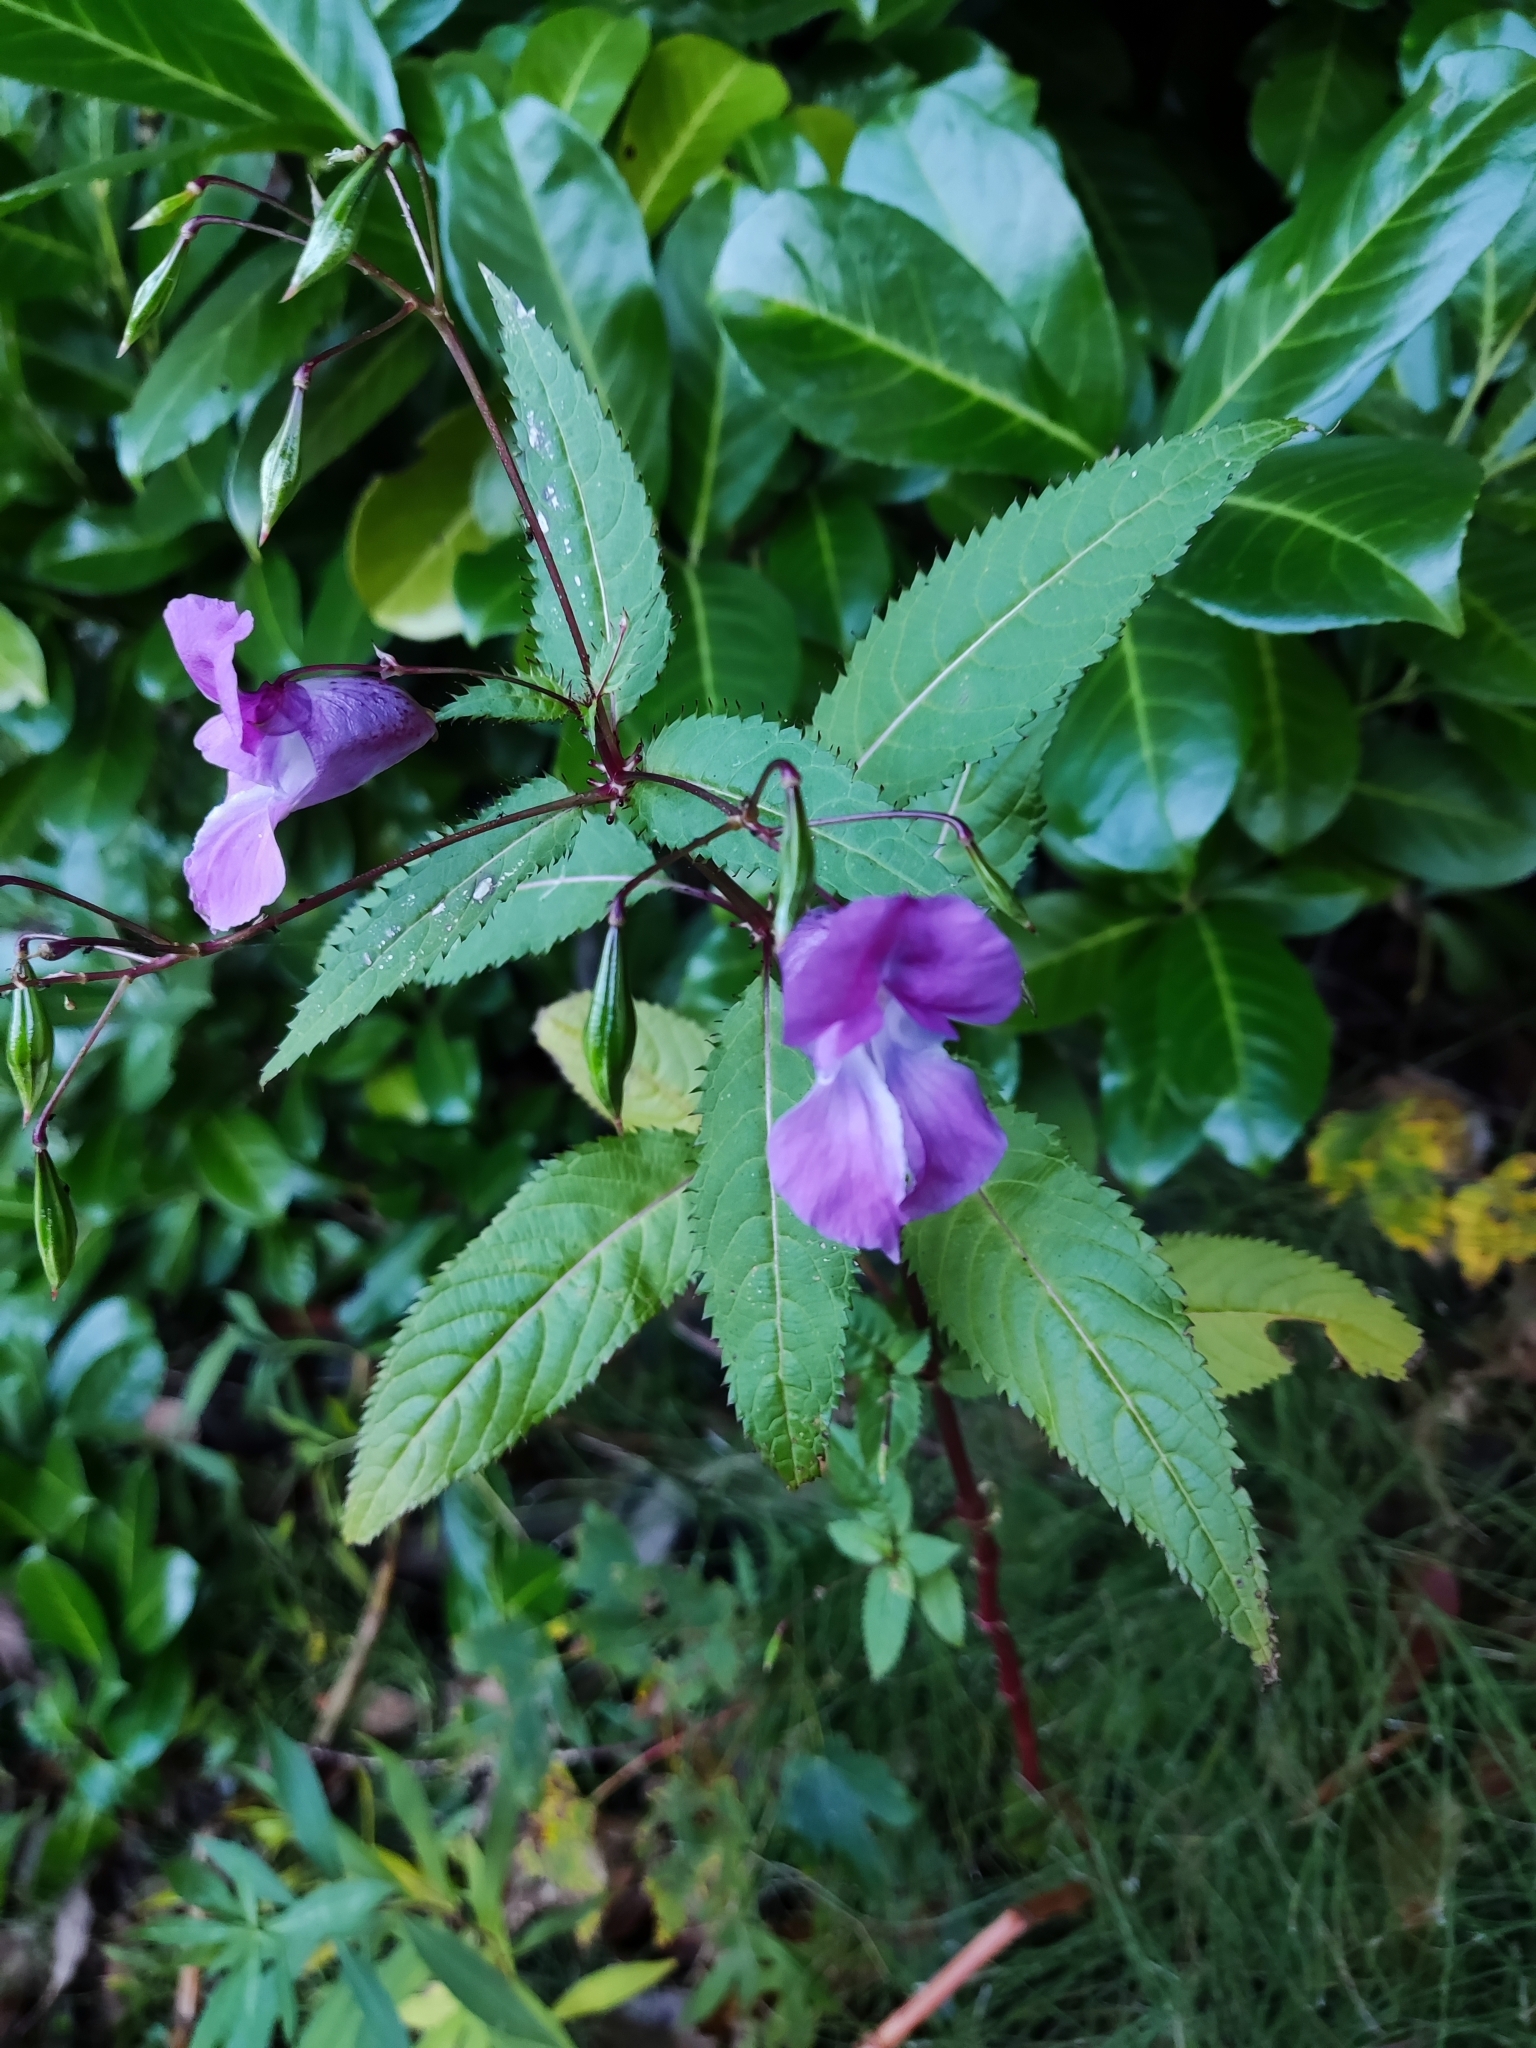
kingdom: Plantae
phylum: Tracheophyta
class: Magnoliopsida
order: Ericales
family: Balsaminaceae
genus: Impatiens
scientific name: Impatiens glandulifera
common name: Himalayan balsam
